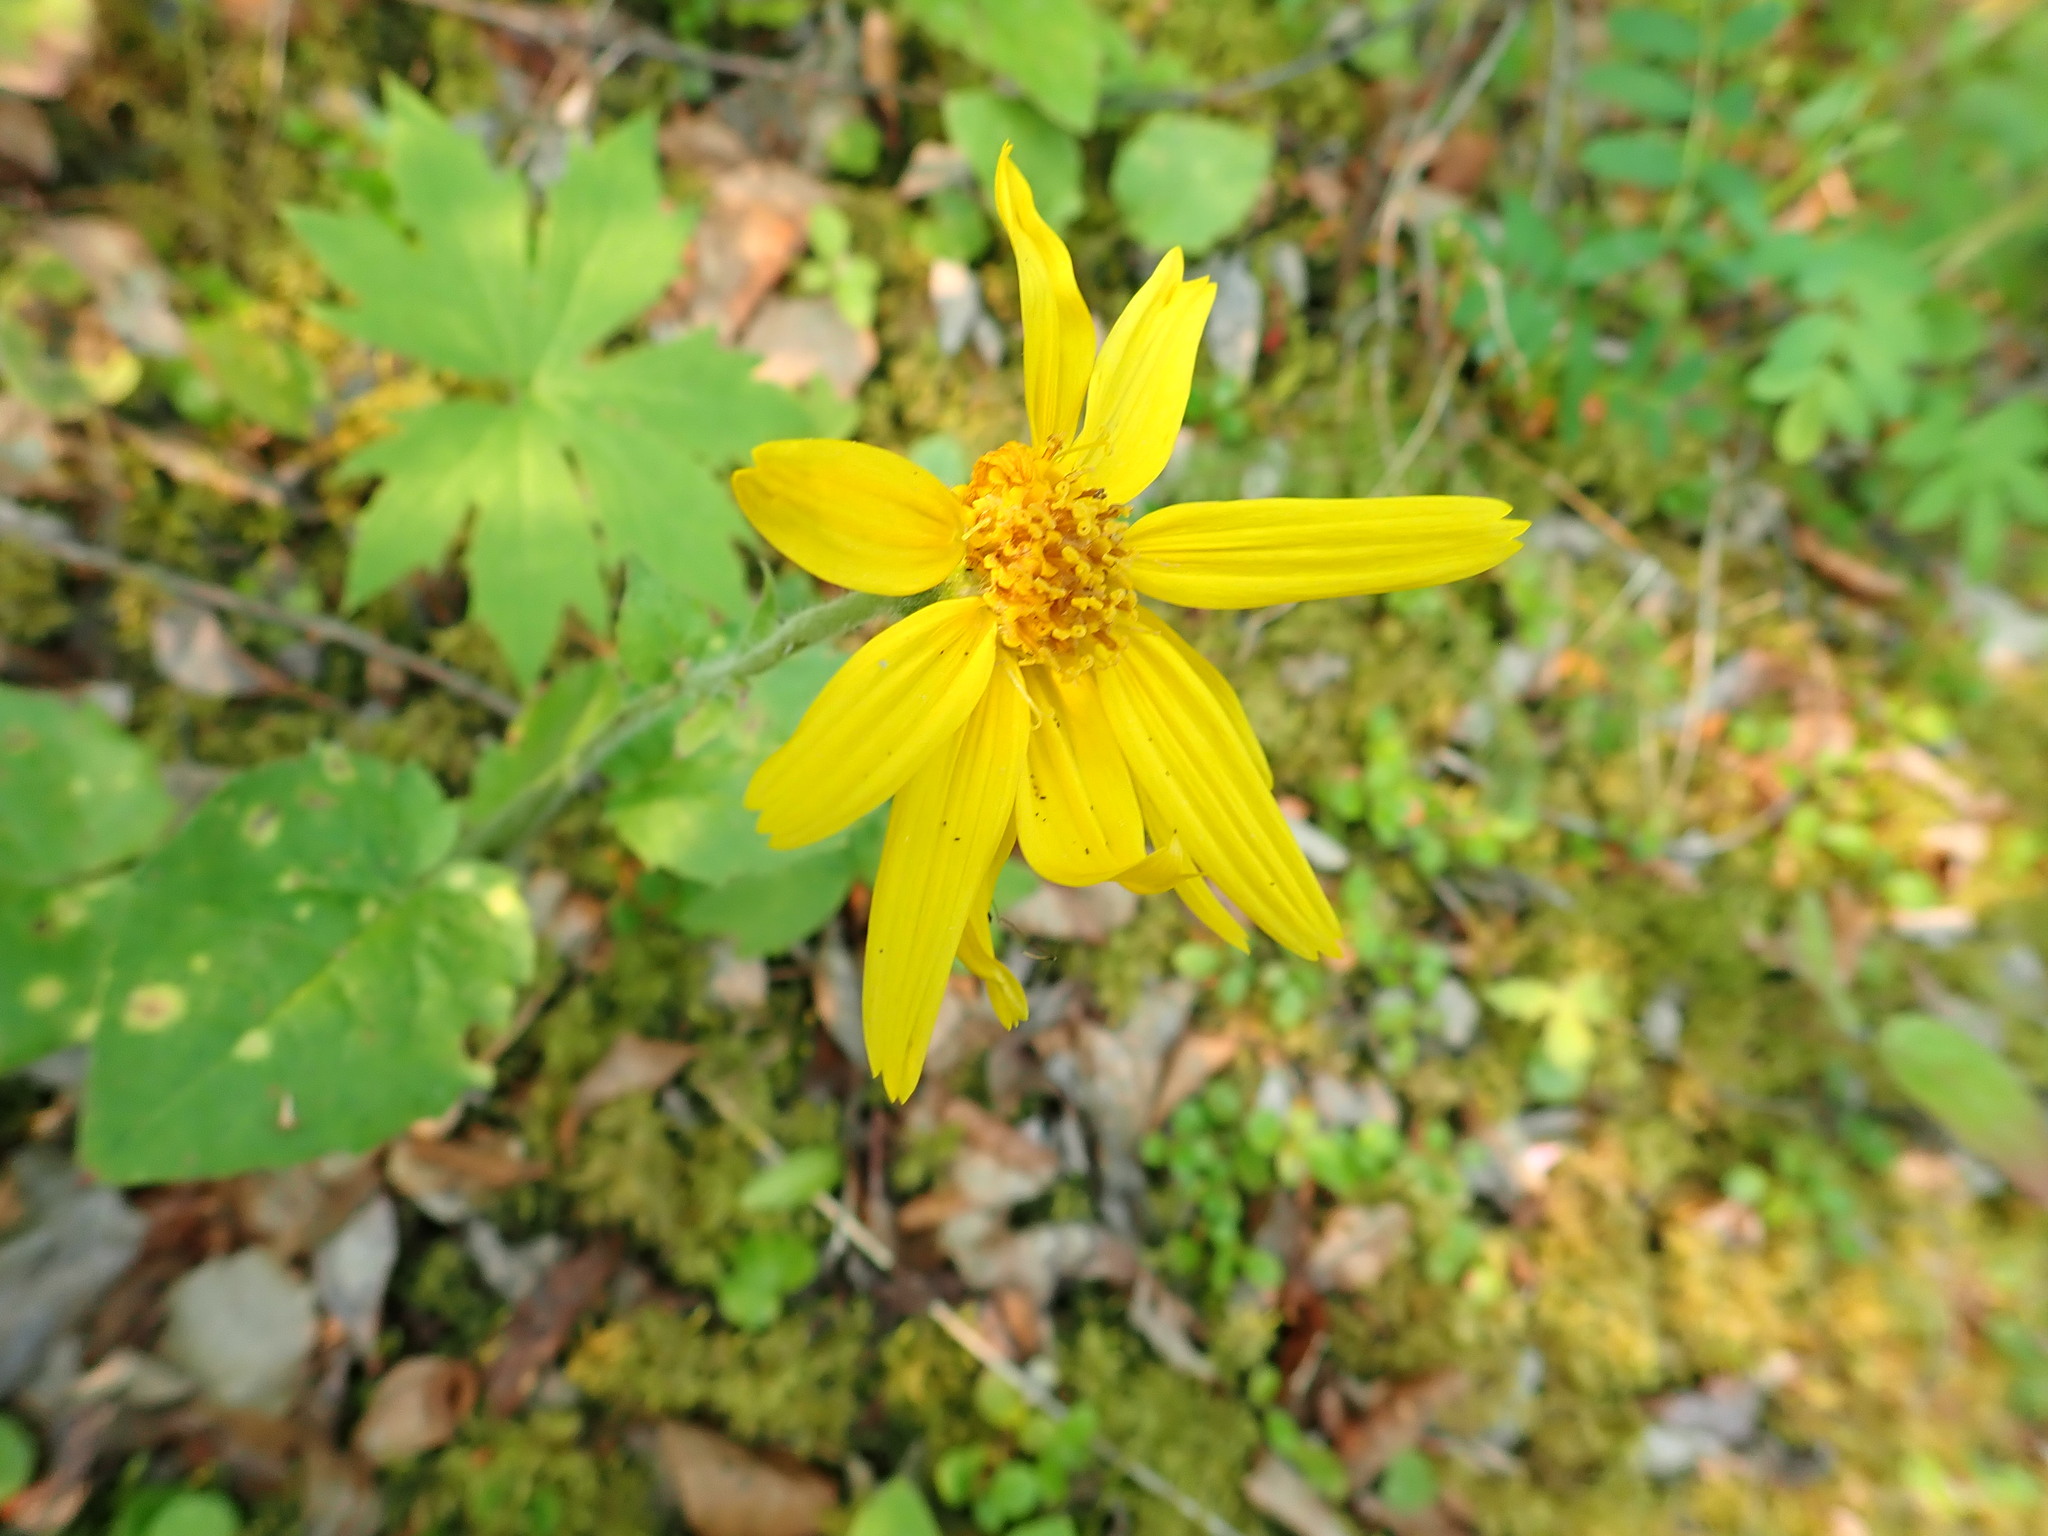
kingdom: Plantae
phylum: Tracheophyta
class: Magnoliopsida
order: Asterales
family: Asteraceae
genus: Arnica
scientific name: Arnica cordifolia
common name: Heart-leaf arnica
